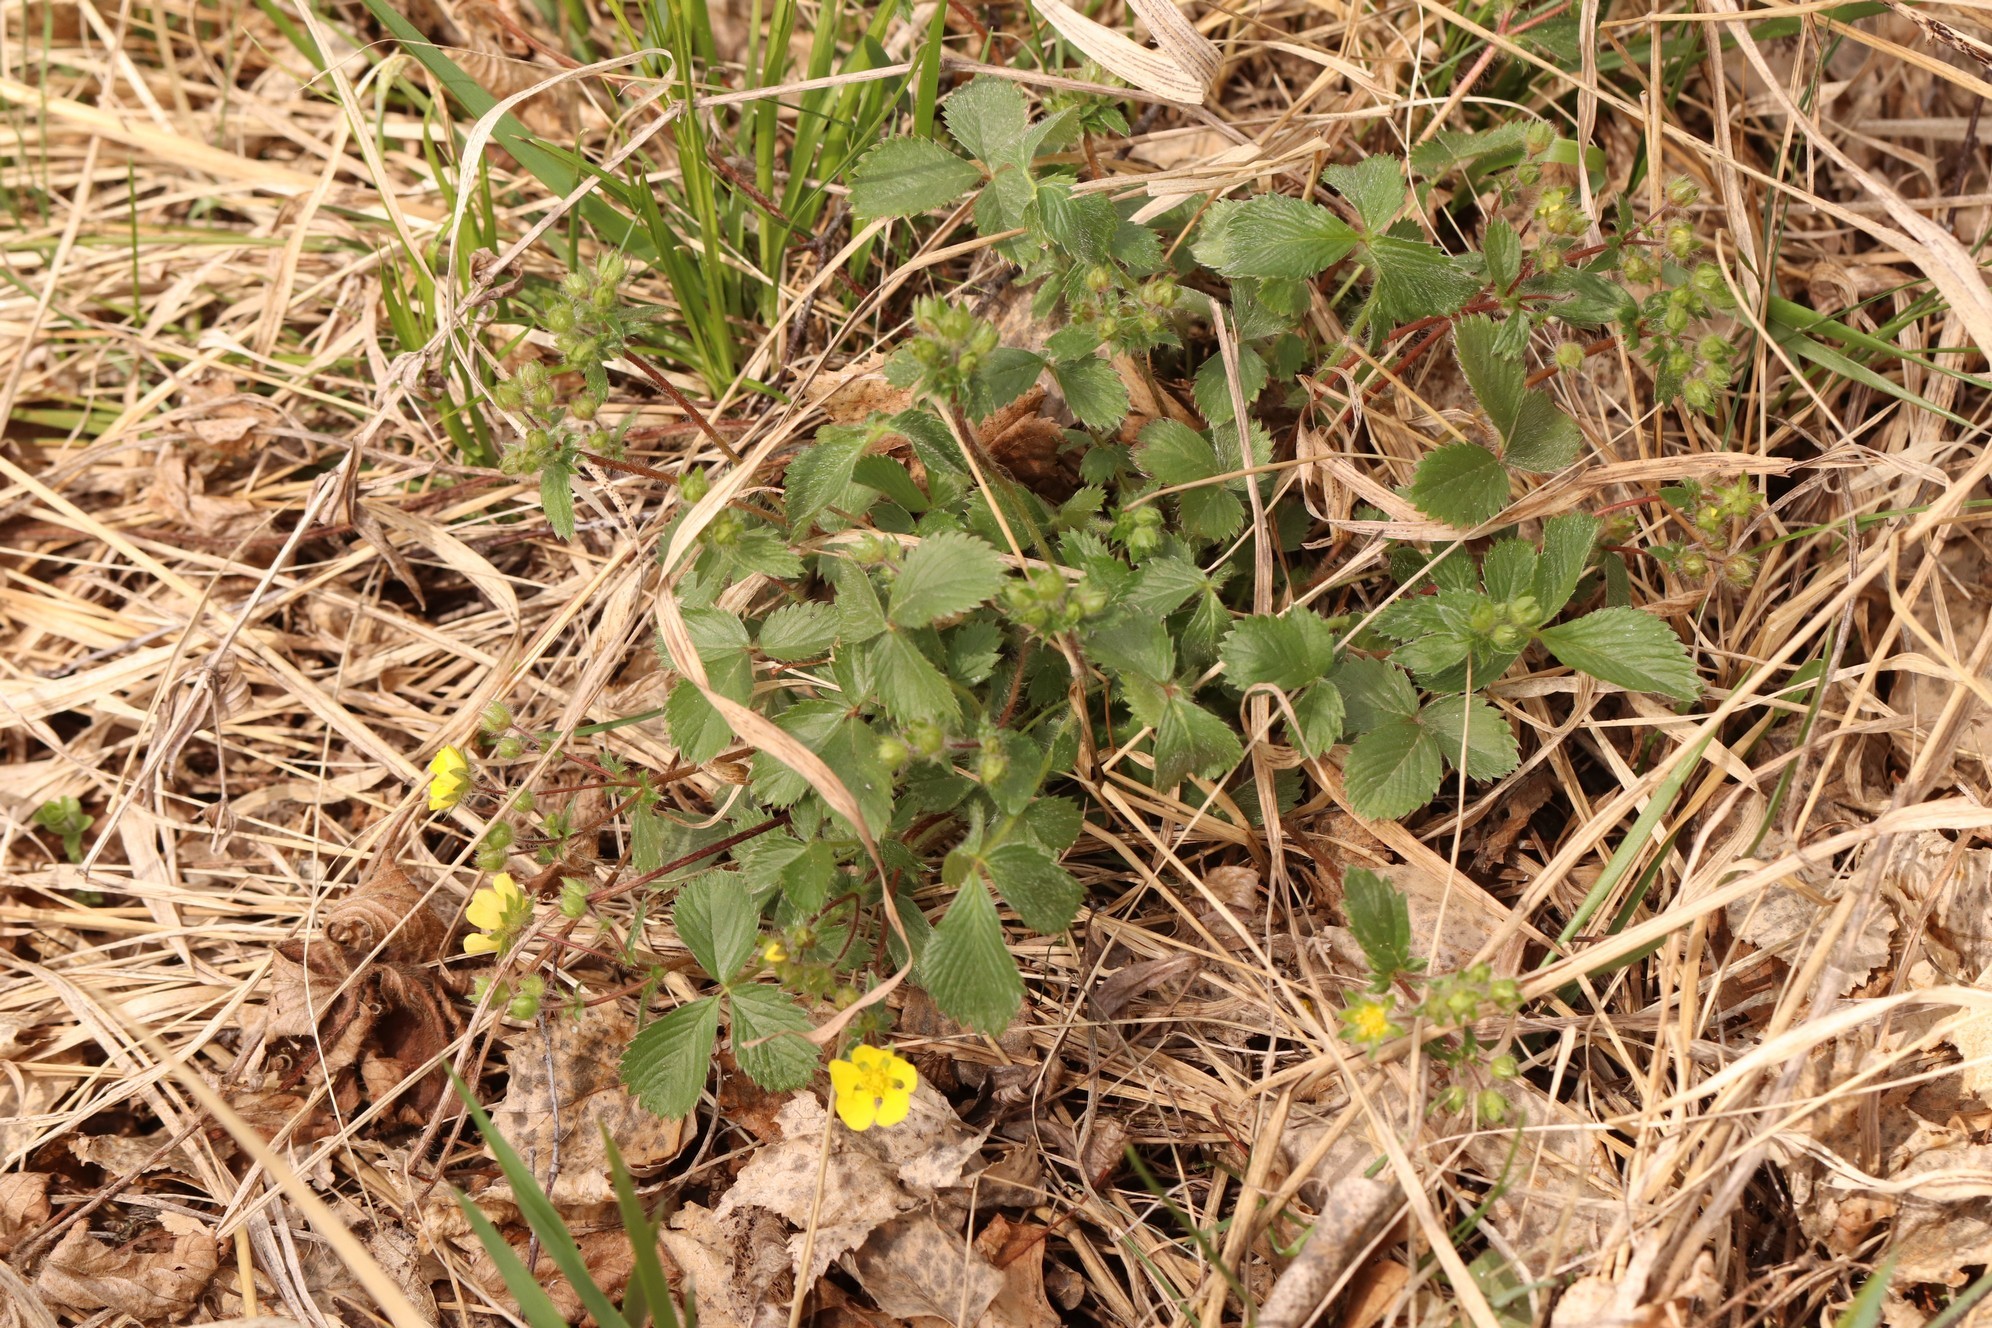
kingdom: Plantae
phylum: Tracheophyta
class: Magnoliopsida
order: Rosales
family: Rosaceae
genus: Potentilla
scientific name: Potentilla fragarioides
